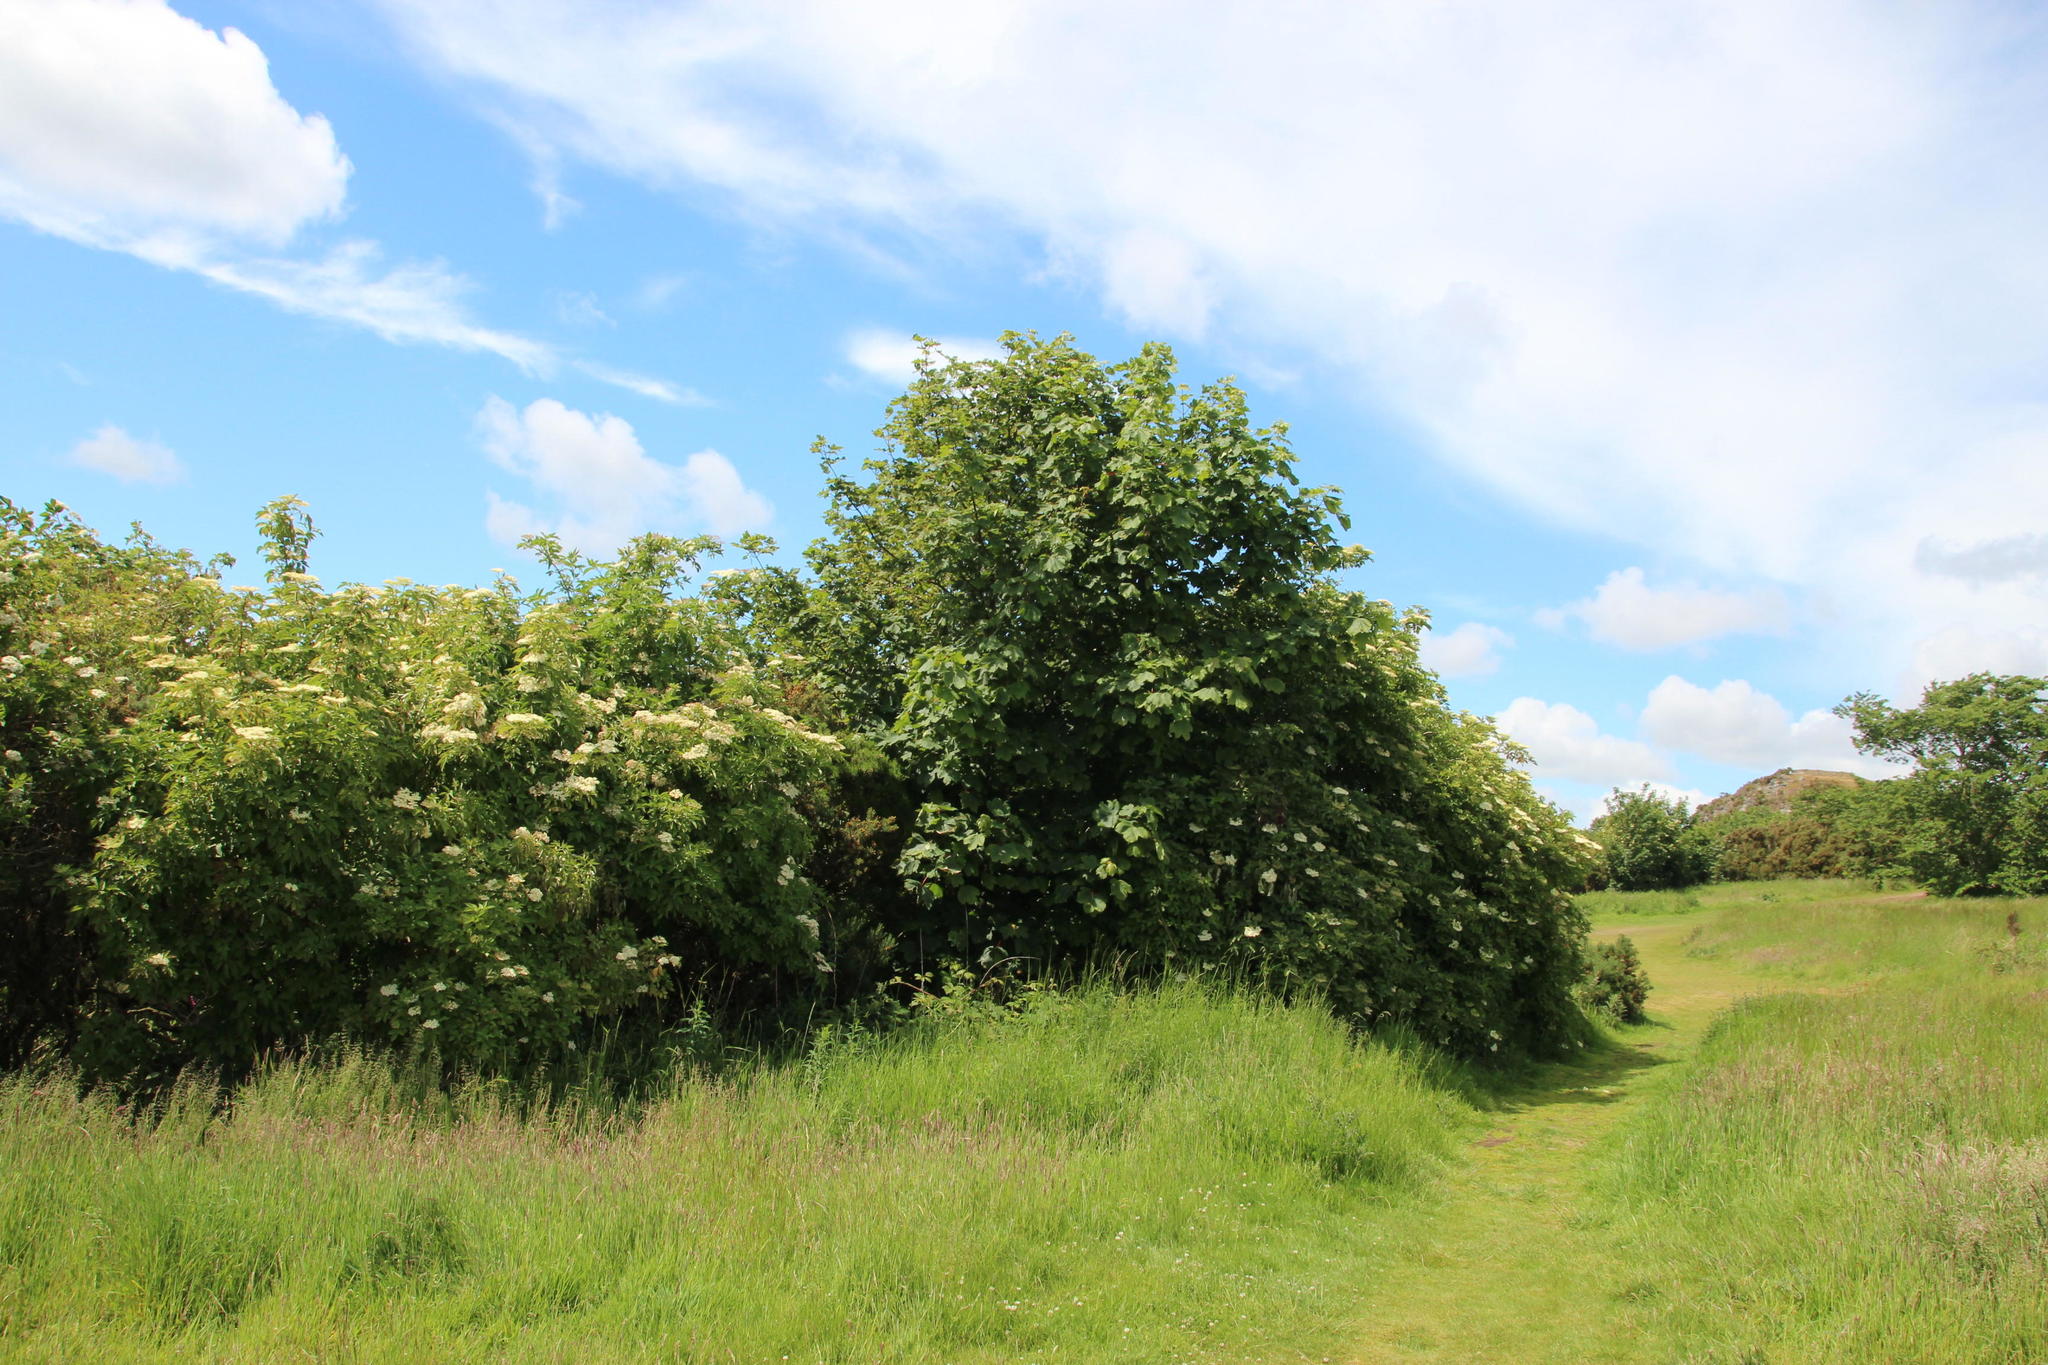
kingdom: Plantae
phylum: Tracheophyta
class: Magnoliopsida
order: Dipsacales
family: Viburnaceae
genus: Sambucus
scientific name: Sambucus nigra
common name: Elder
